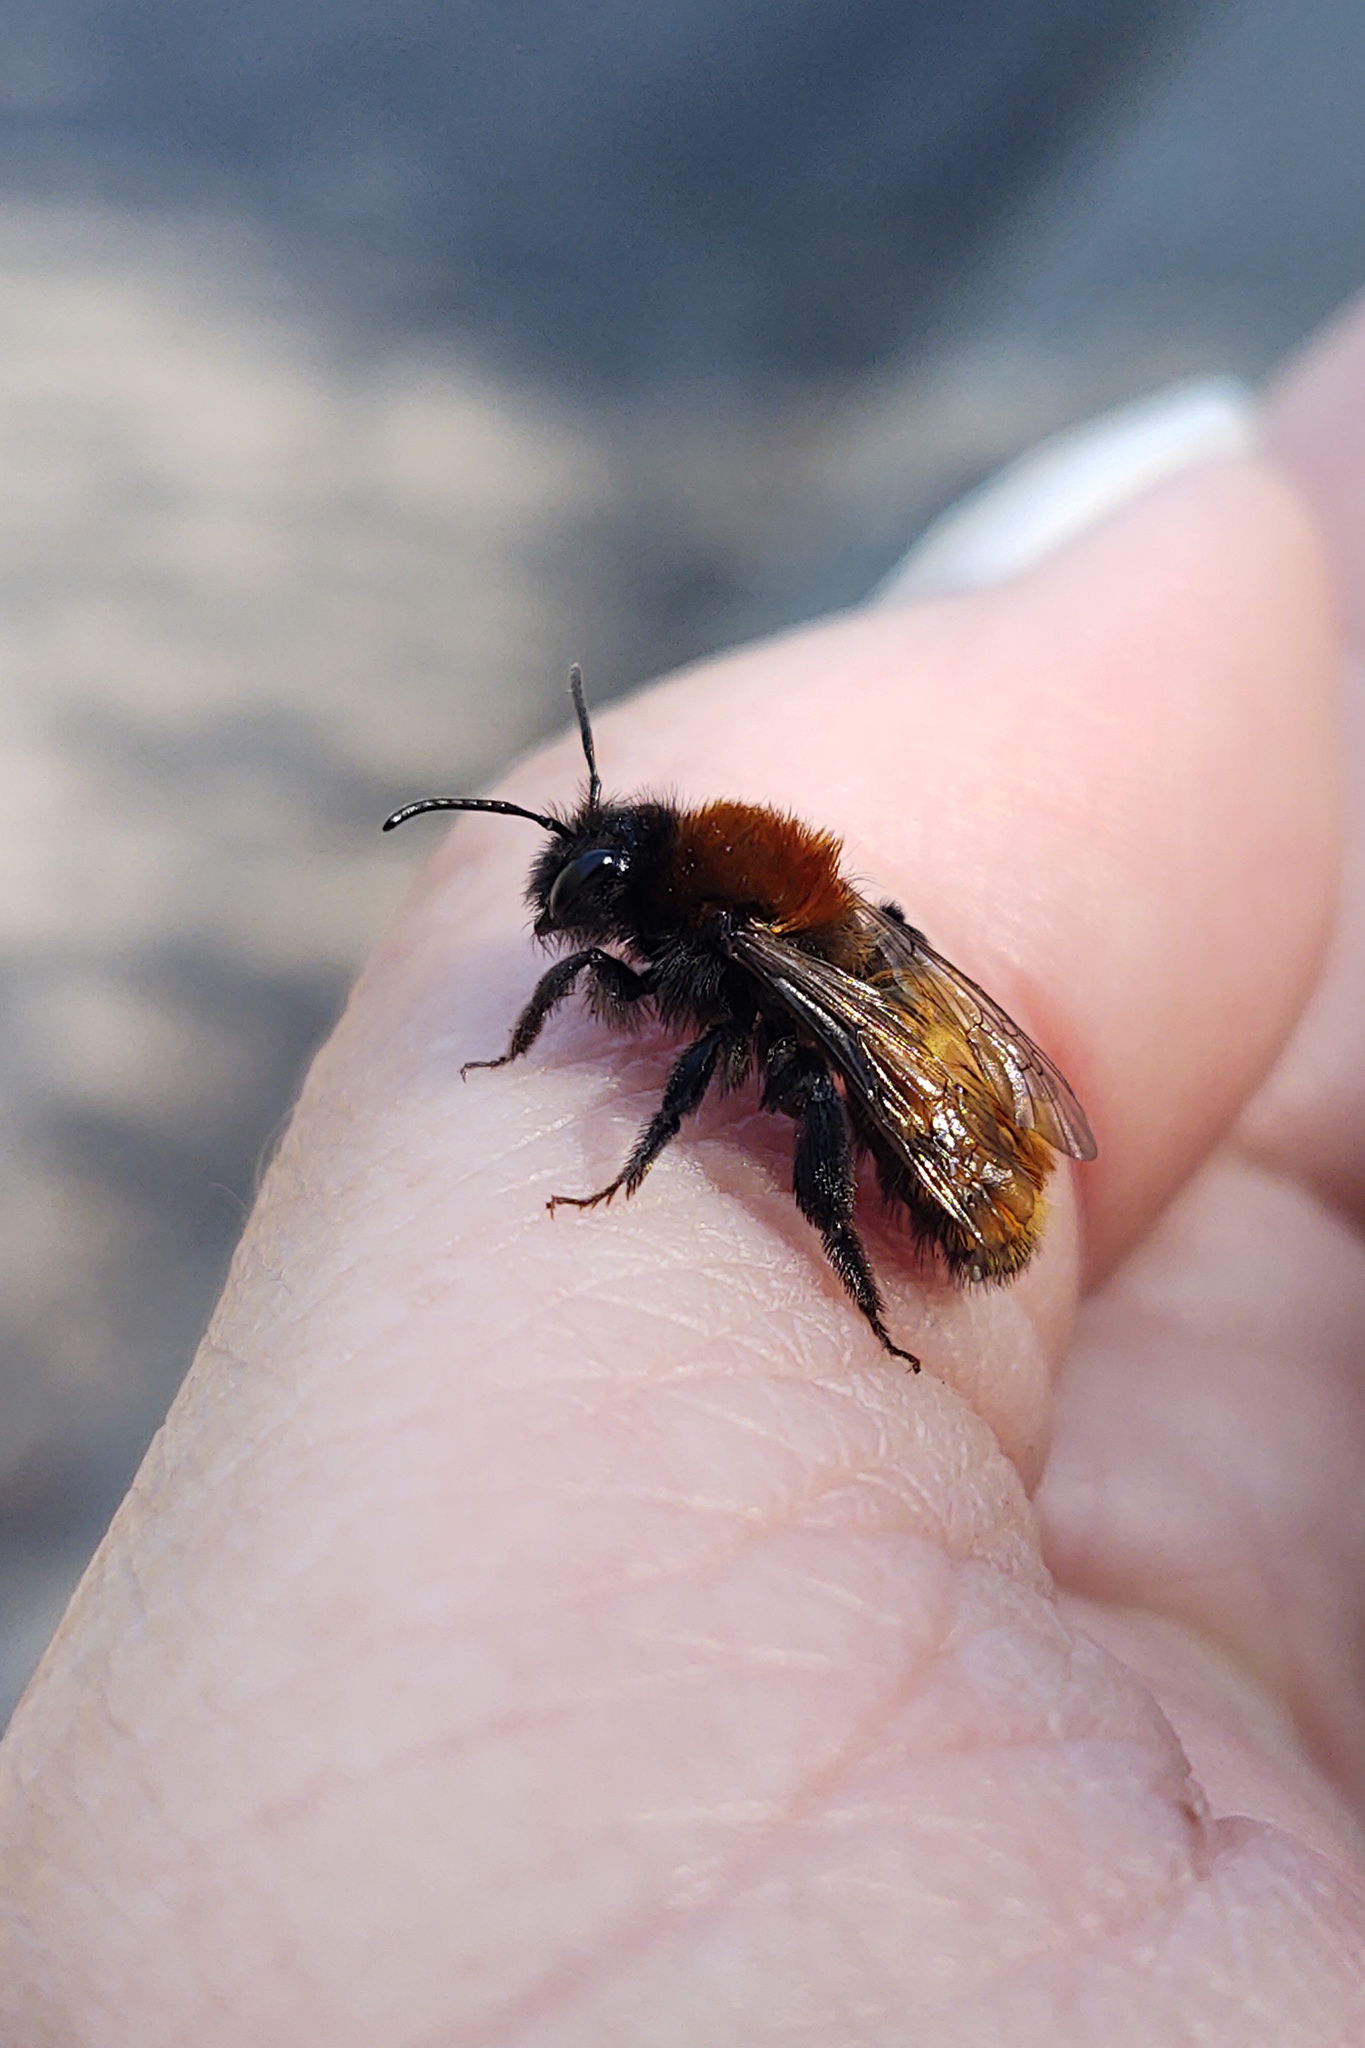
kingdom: Animalia
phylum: Arthropoda
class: Insecta
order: Hymenoptera
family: Andrenidae
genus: Andrena
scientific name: Andrena fulva
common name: Tawny mining bee
